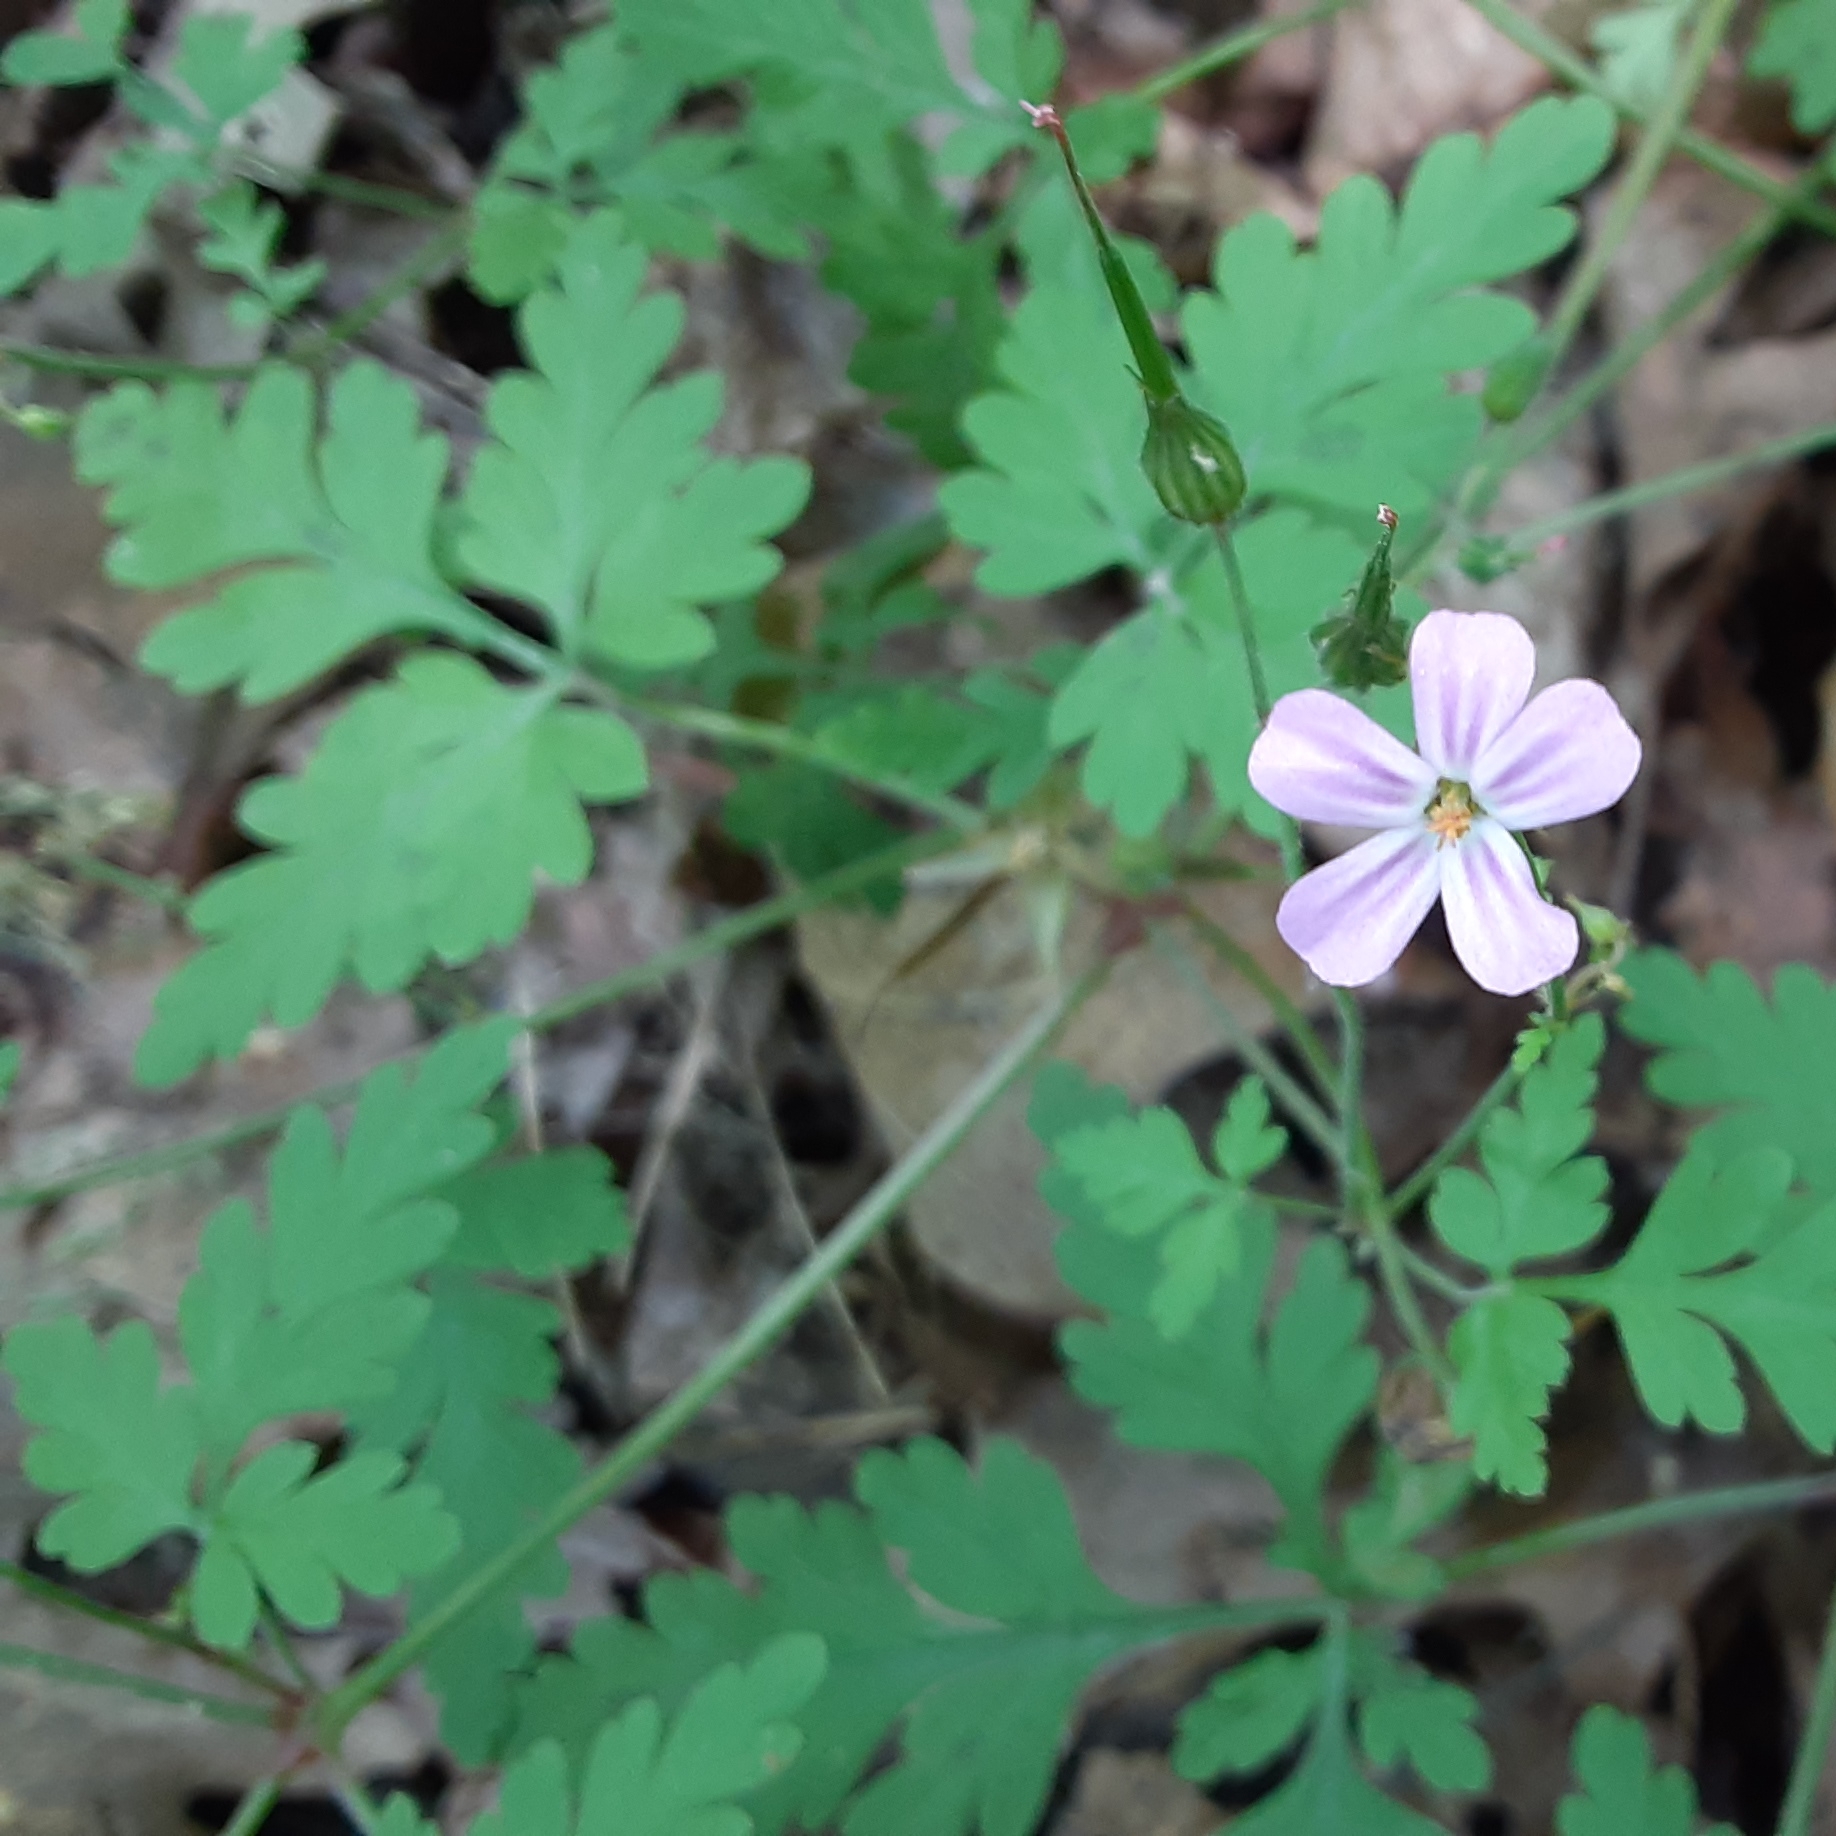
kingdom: Plantae
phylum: Tracheophyta
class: Magnoliopsida
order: Geraniales
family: Geraniaceae
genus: Geranium
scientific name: Geranium robertianum
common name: Herb-robert
